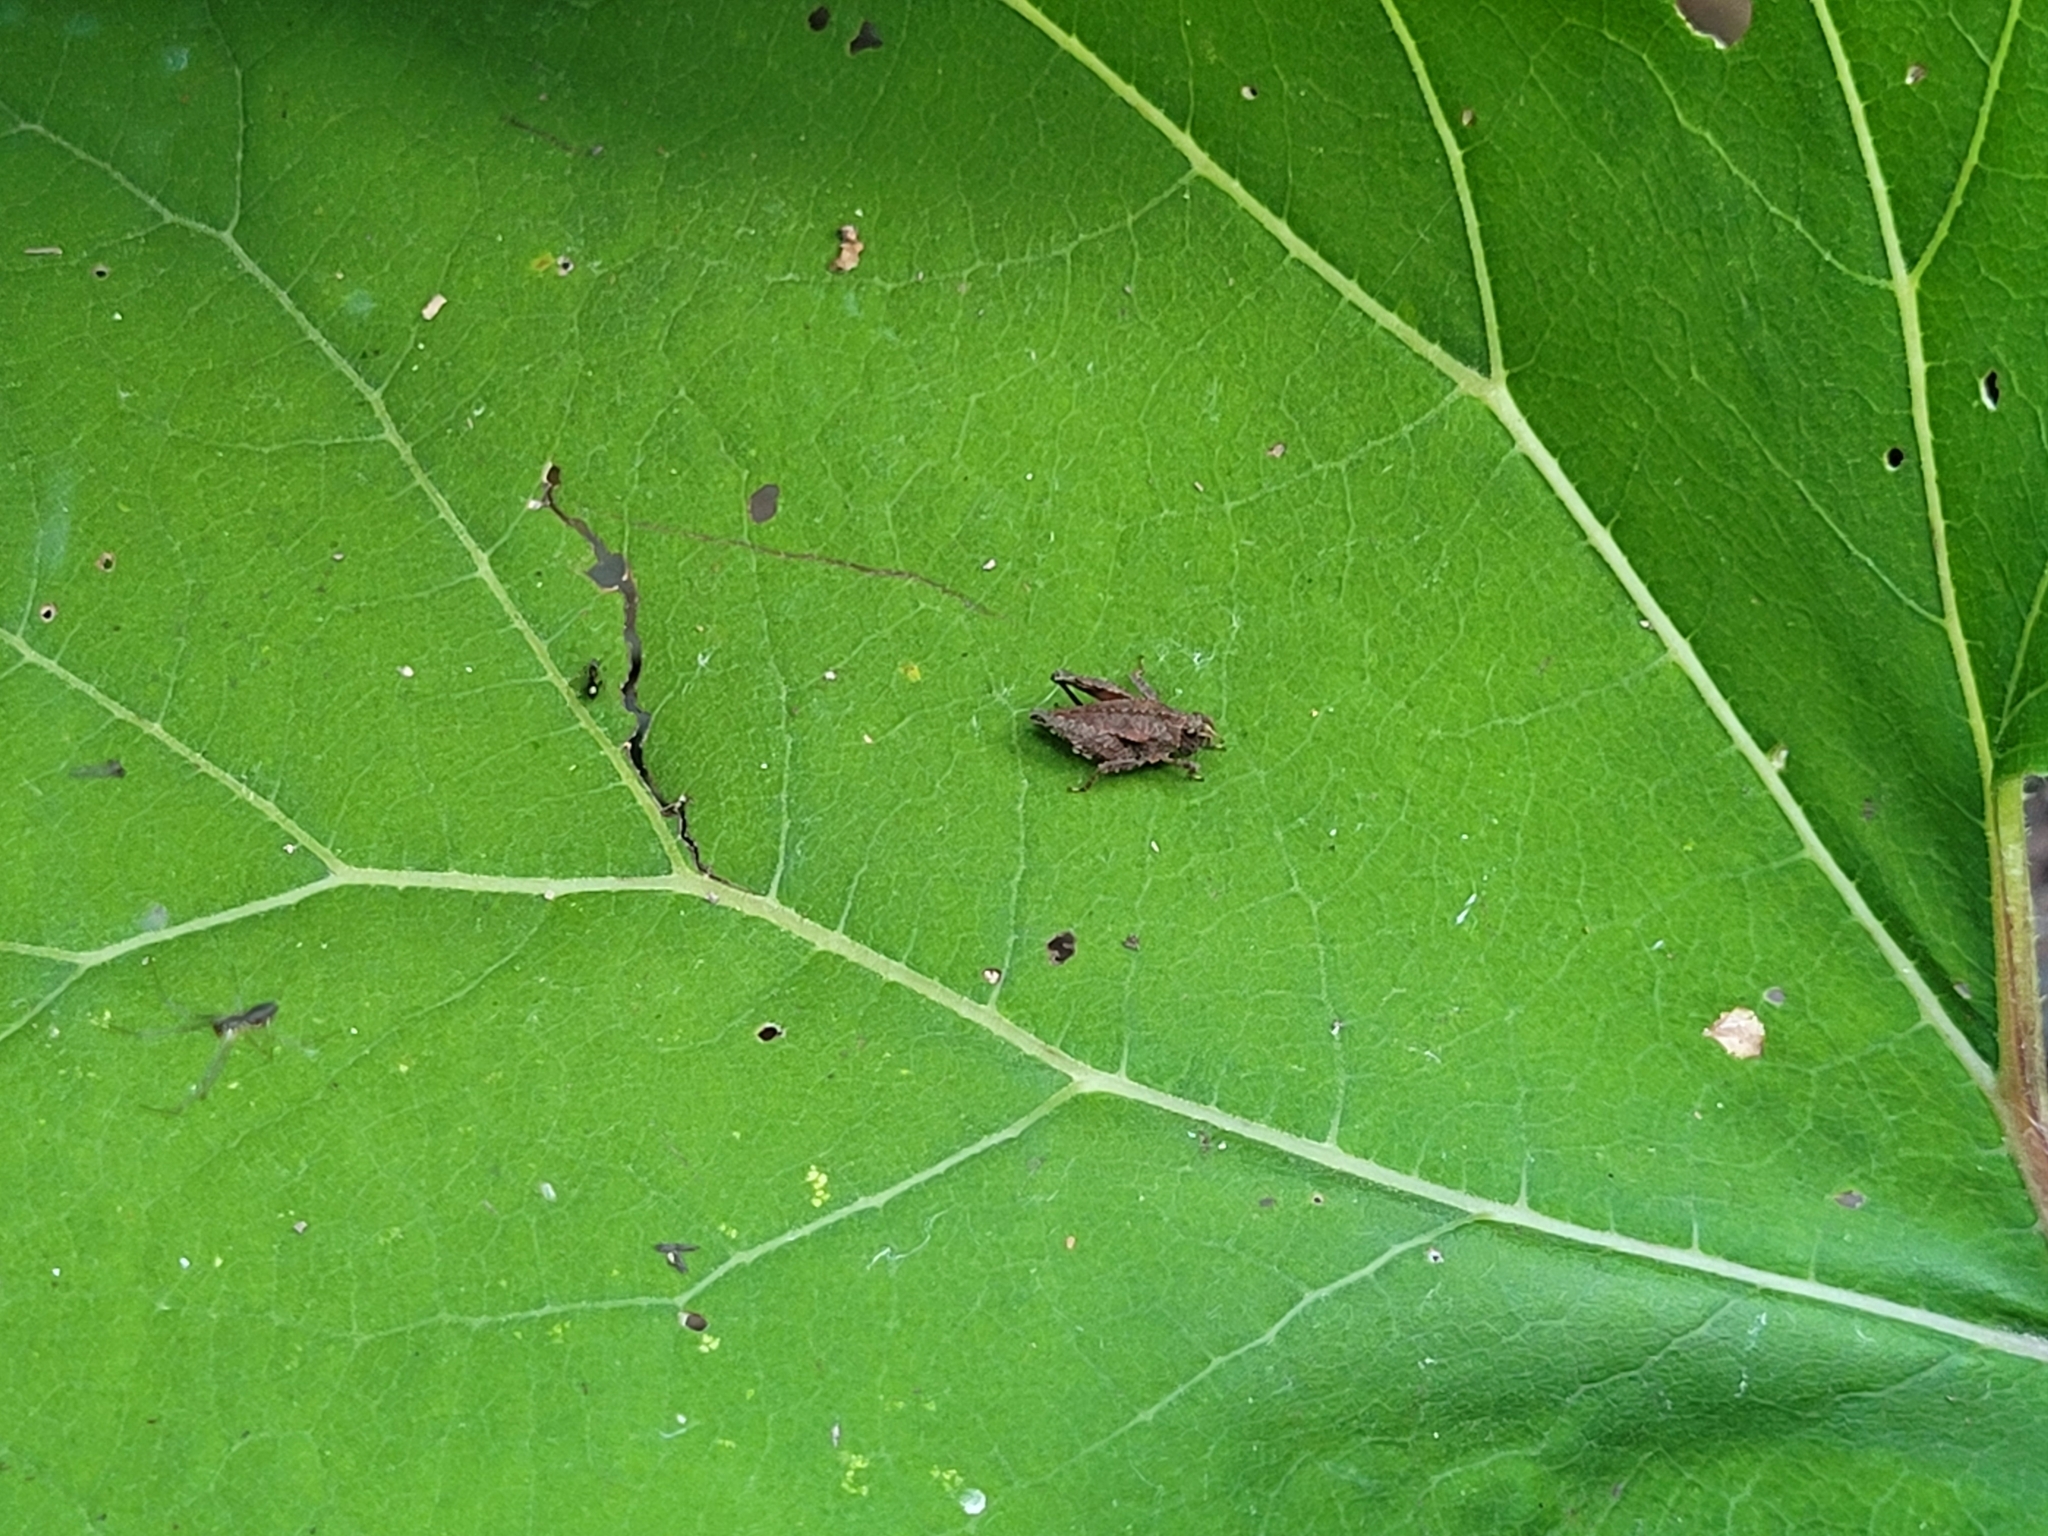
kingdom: Animalia
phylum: Arthropoda
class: Insecta
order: Orthoptera
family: Tetrigidae
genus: Tetrix
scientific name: Tetrix
